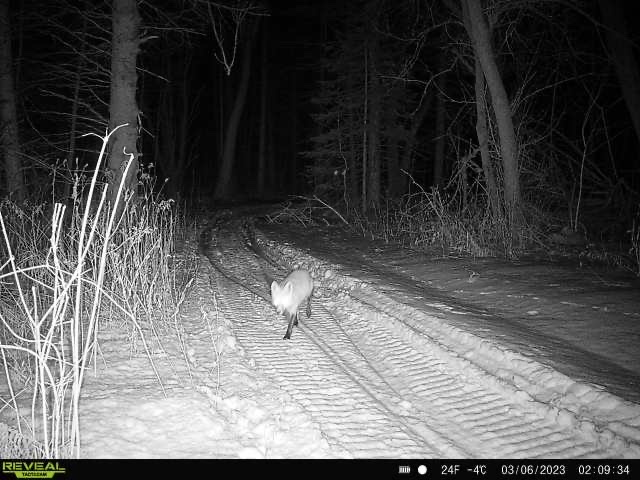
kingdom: Animalia
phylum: Chordata
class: Mammalia
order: Carnivora
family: Canidae
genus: Vulpes
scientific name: Vulpes vulpes
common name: Red fox
